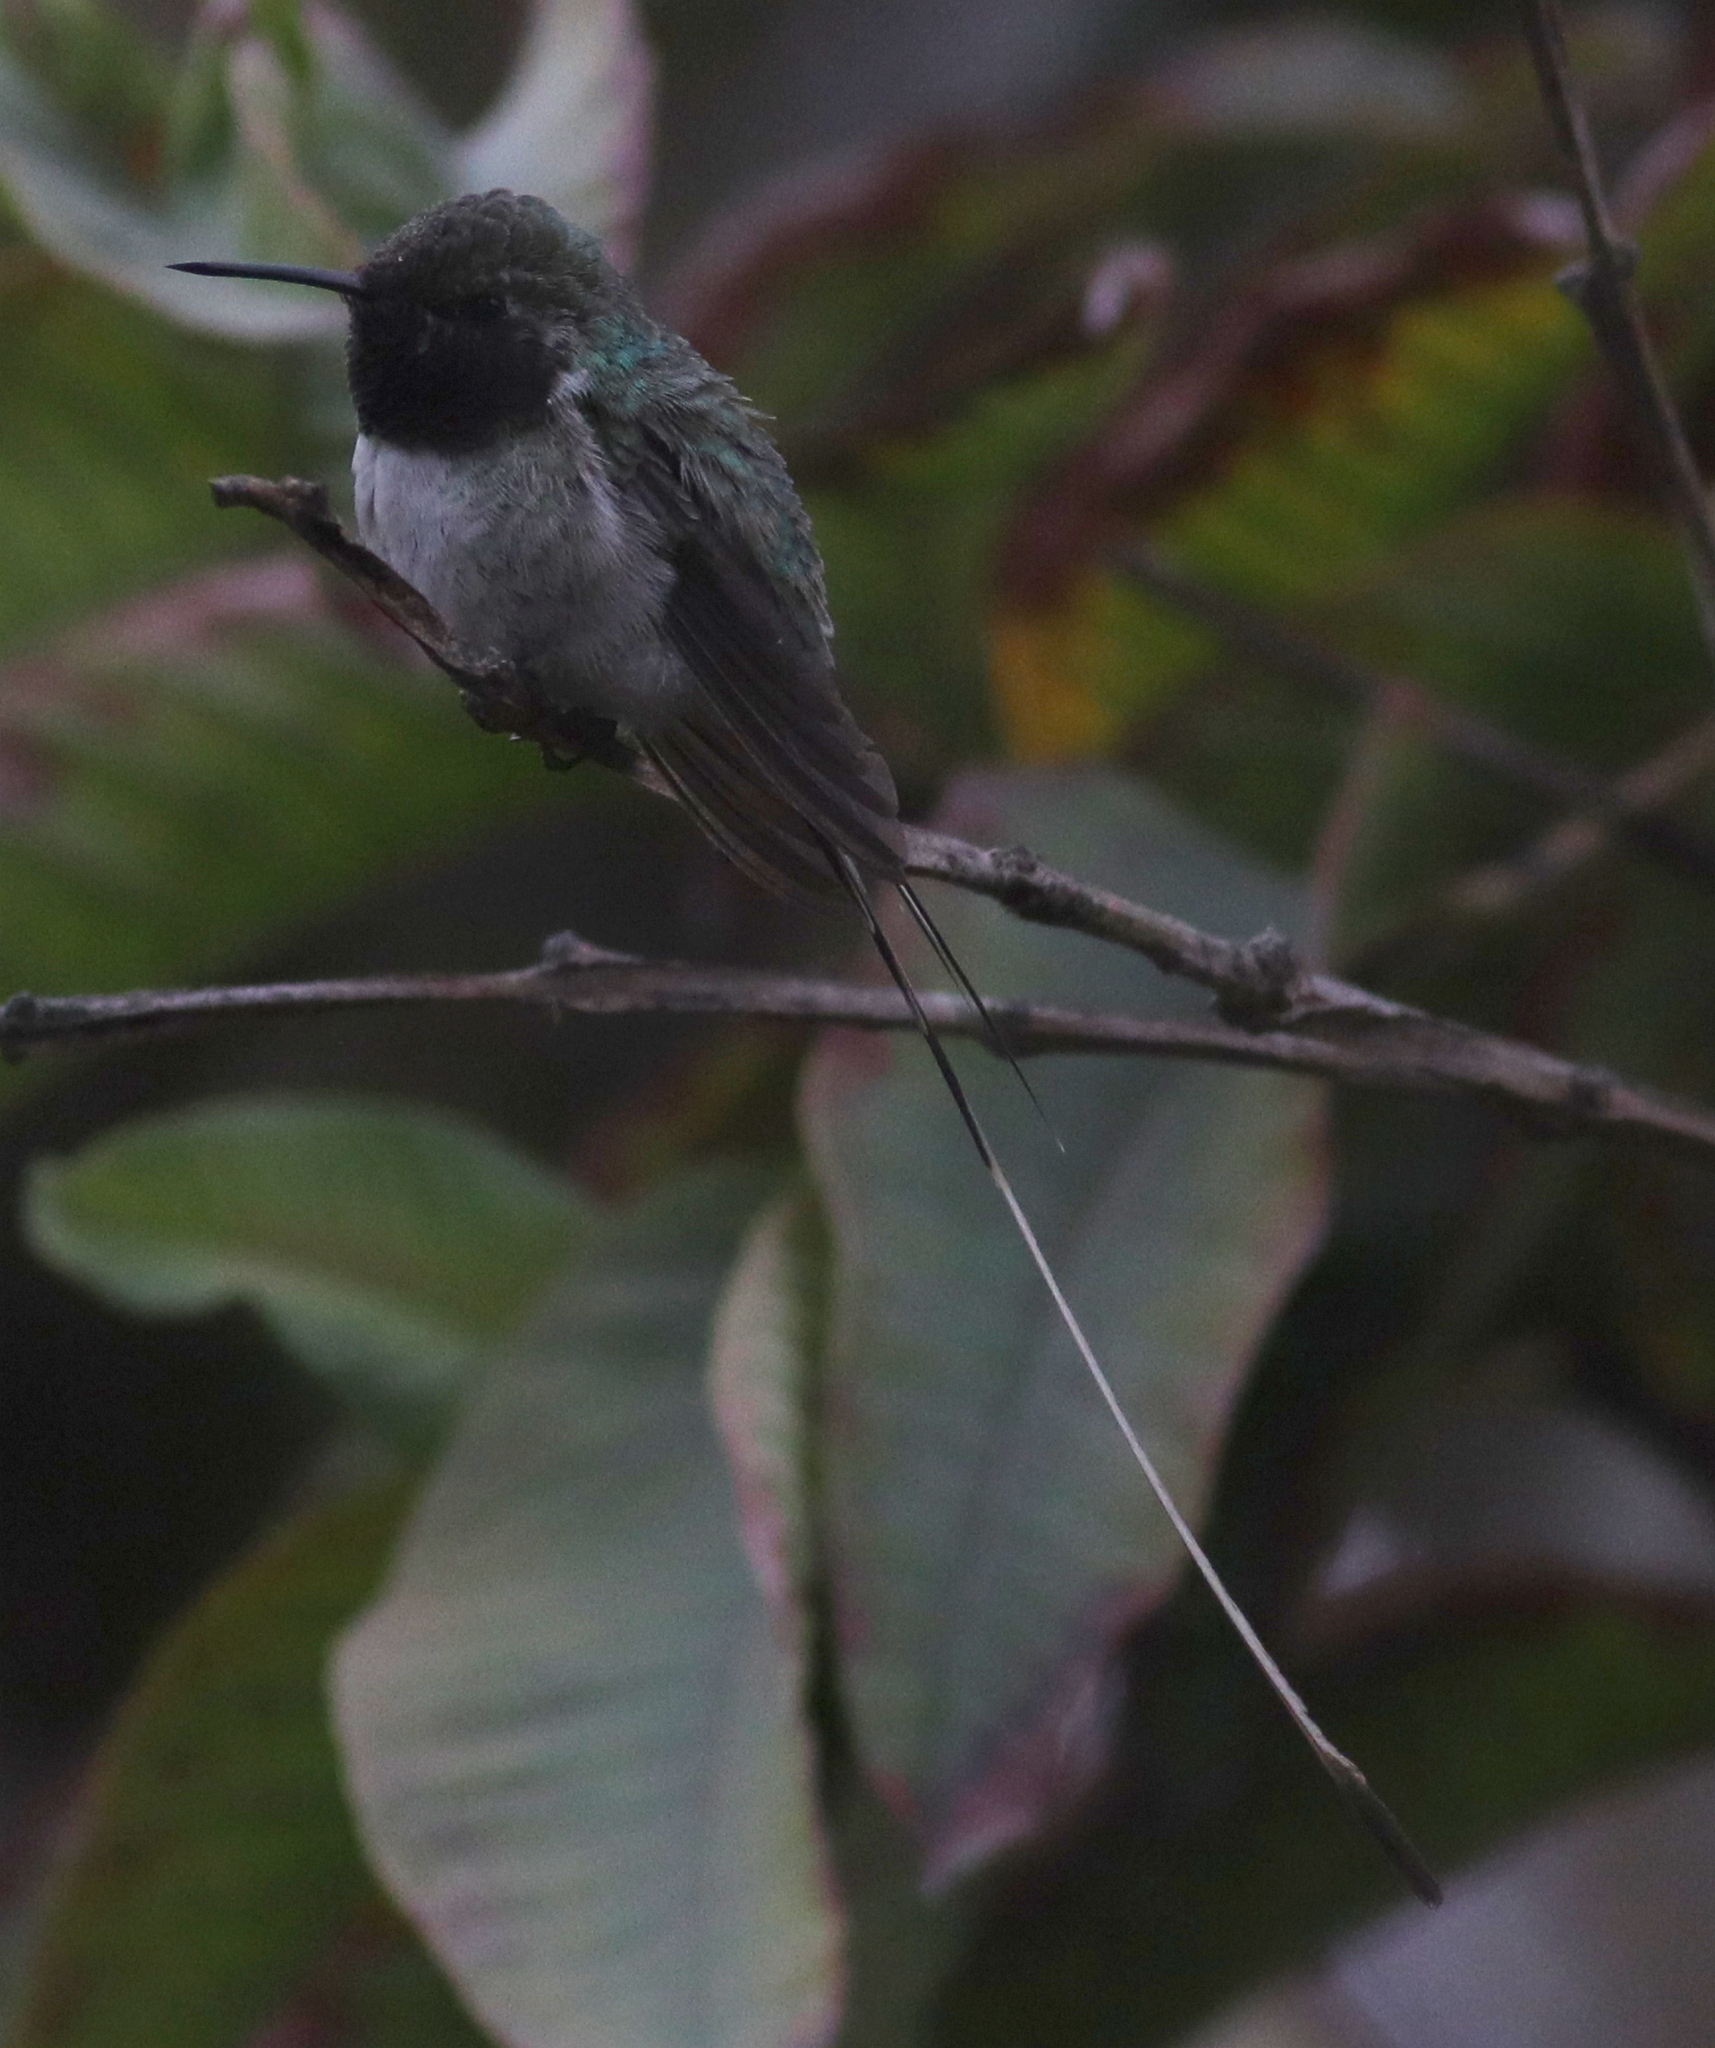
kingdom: Animalia
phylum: Chordata
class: Aves
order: Apodiformes
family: Trochilidae
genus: Thaumastura
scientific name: Thaumastura cora
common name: Peruvian sheartail
